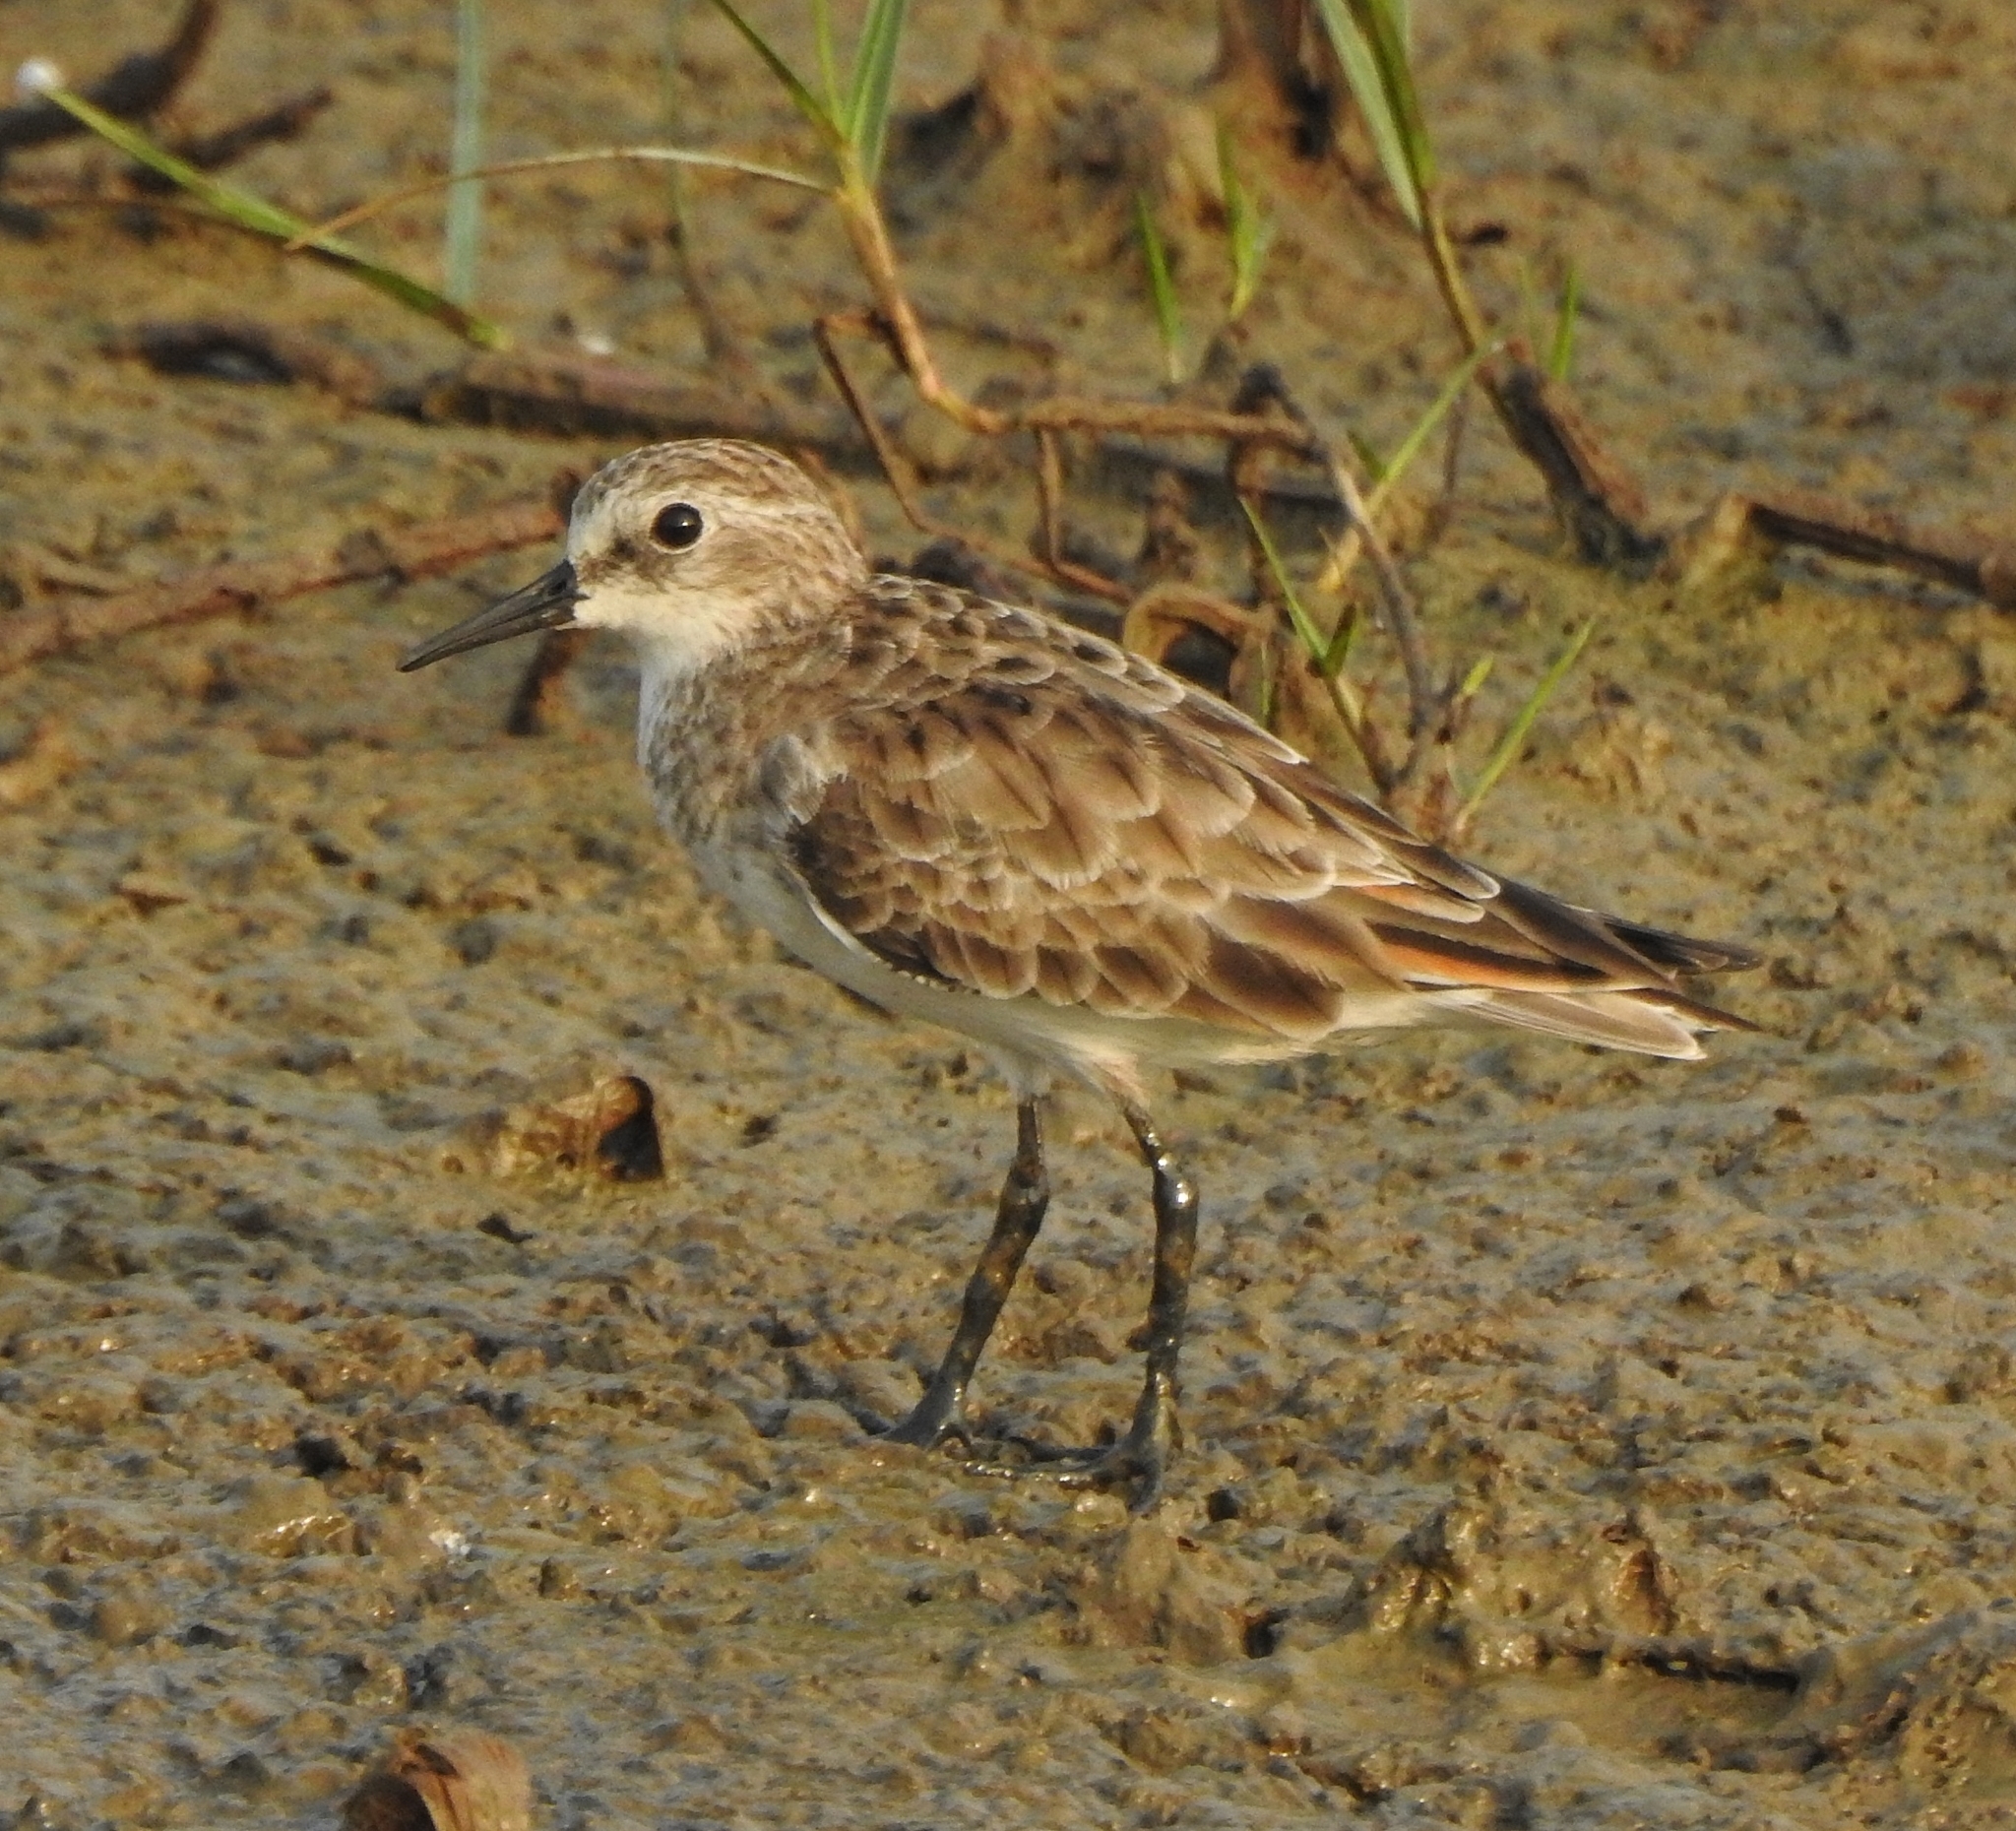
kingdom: Animalia
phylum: Chordata
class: Aves
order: Charadriiformes
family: Scolopacidae
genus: Calidris
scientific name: Calidris minuta
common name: Little stint
